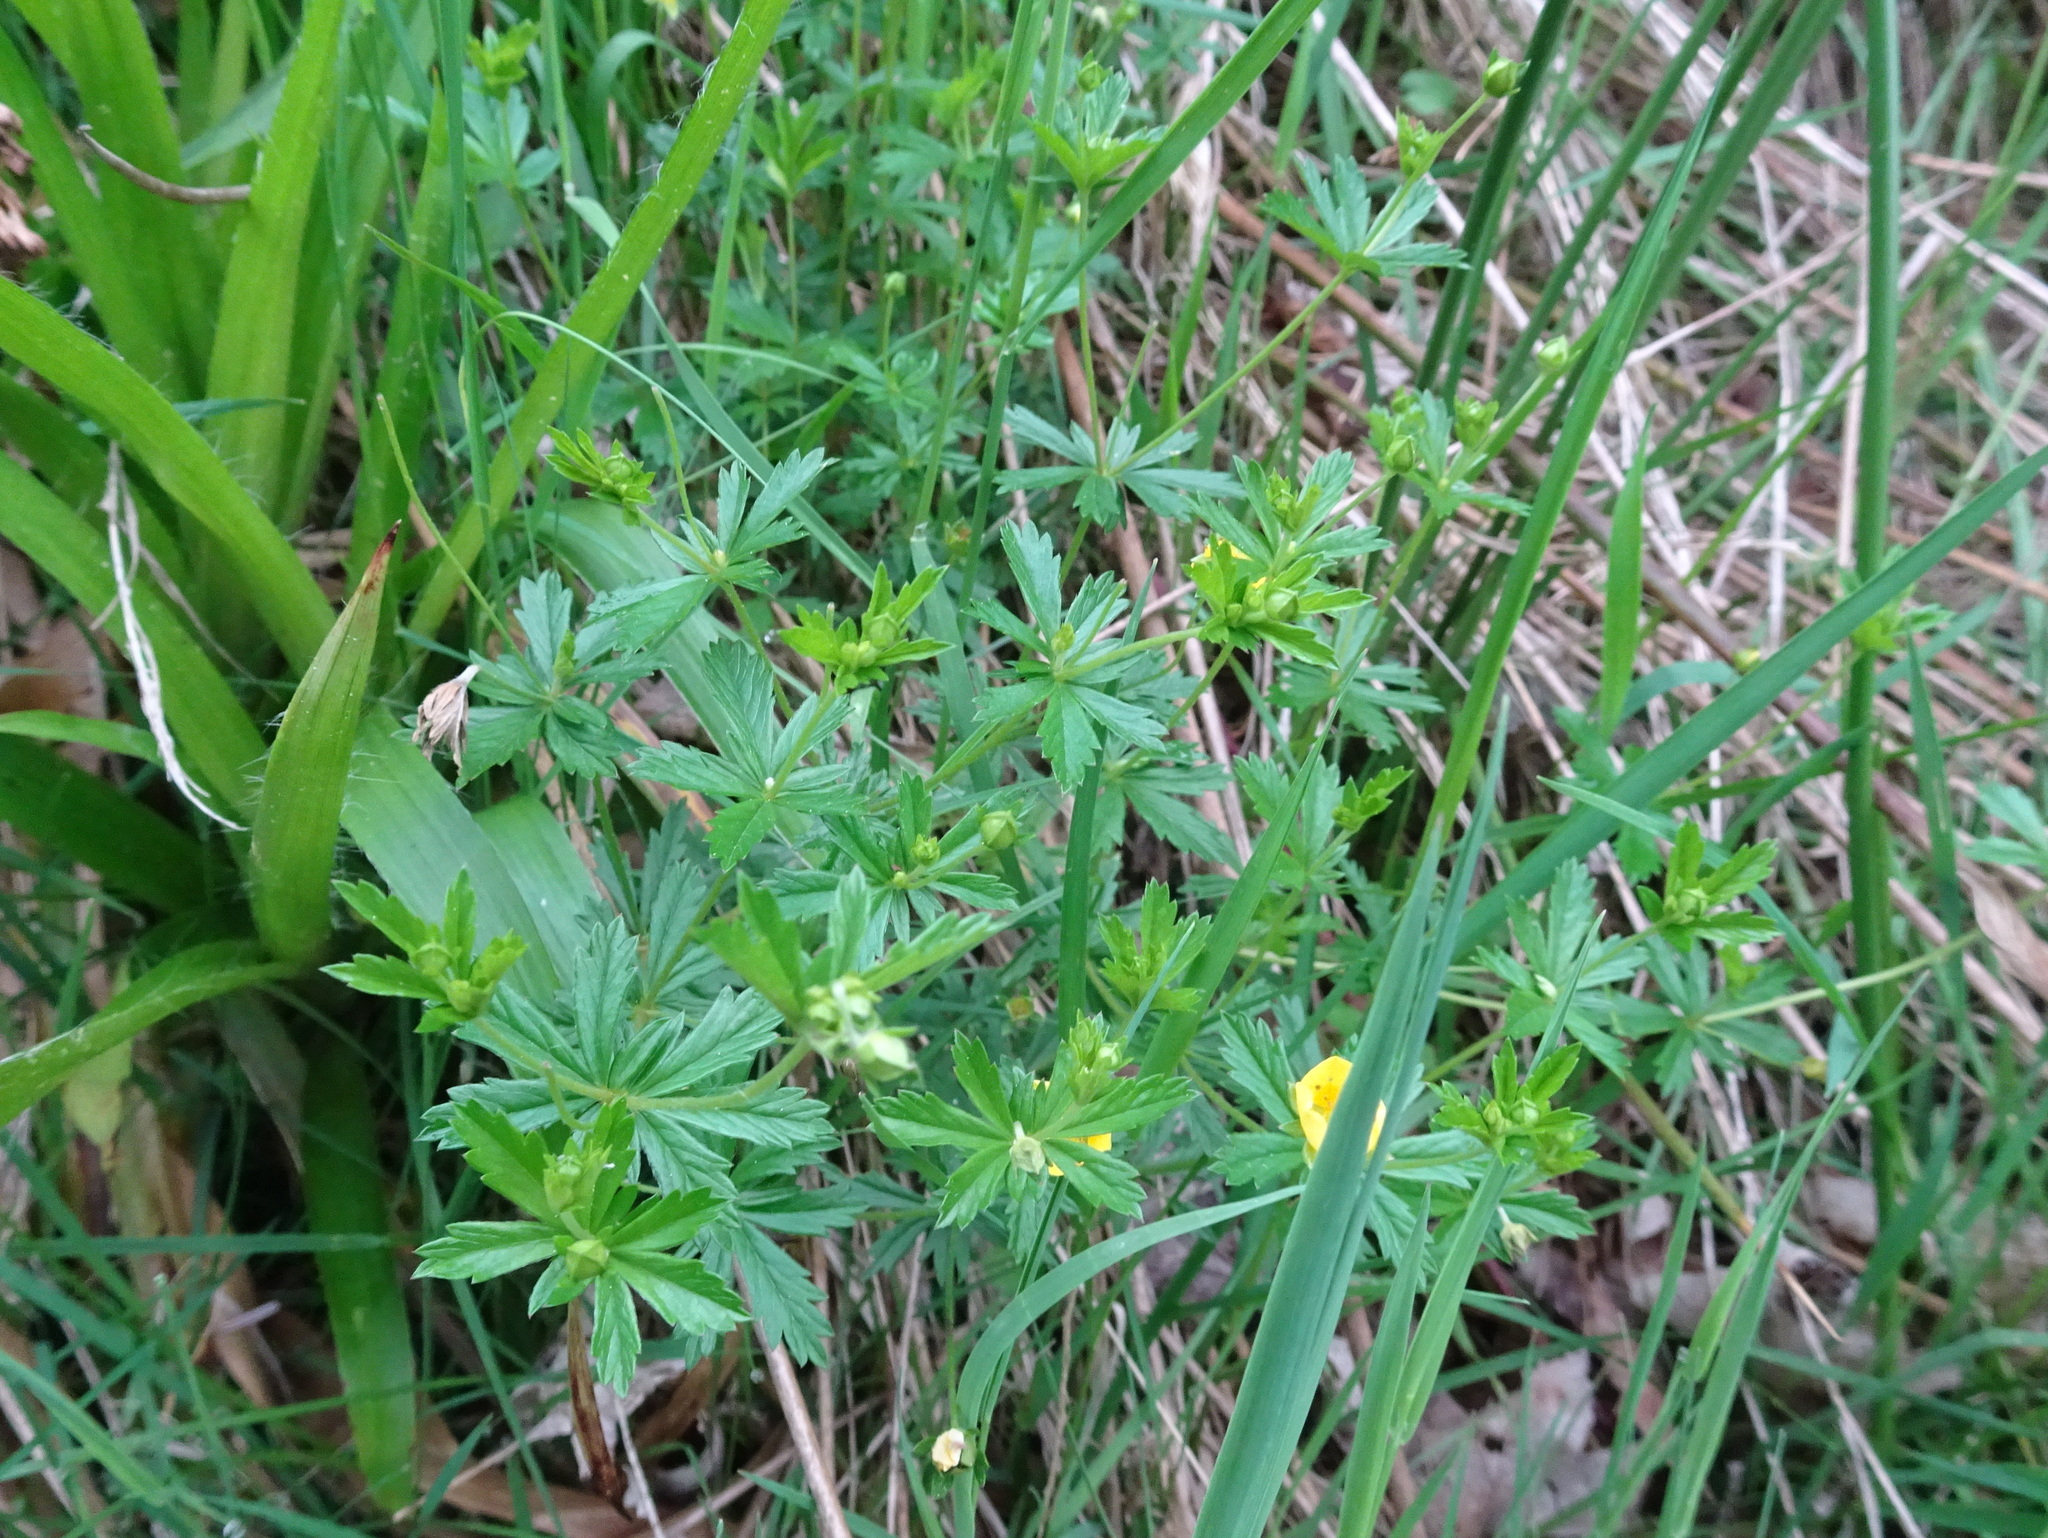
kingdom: Plantae
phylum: Tracheophyta
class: Magnoliopsida
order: Rosales
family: Rosaceae
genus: Potentilla
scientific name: Potentilla erecta
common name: Tormentil
